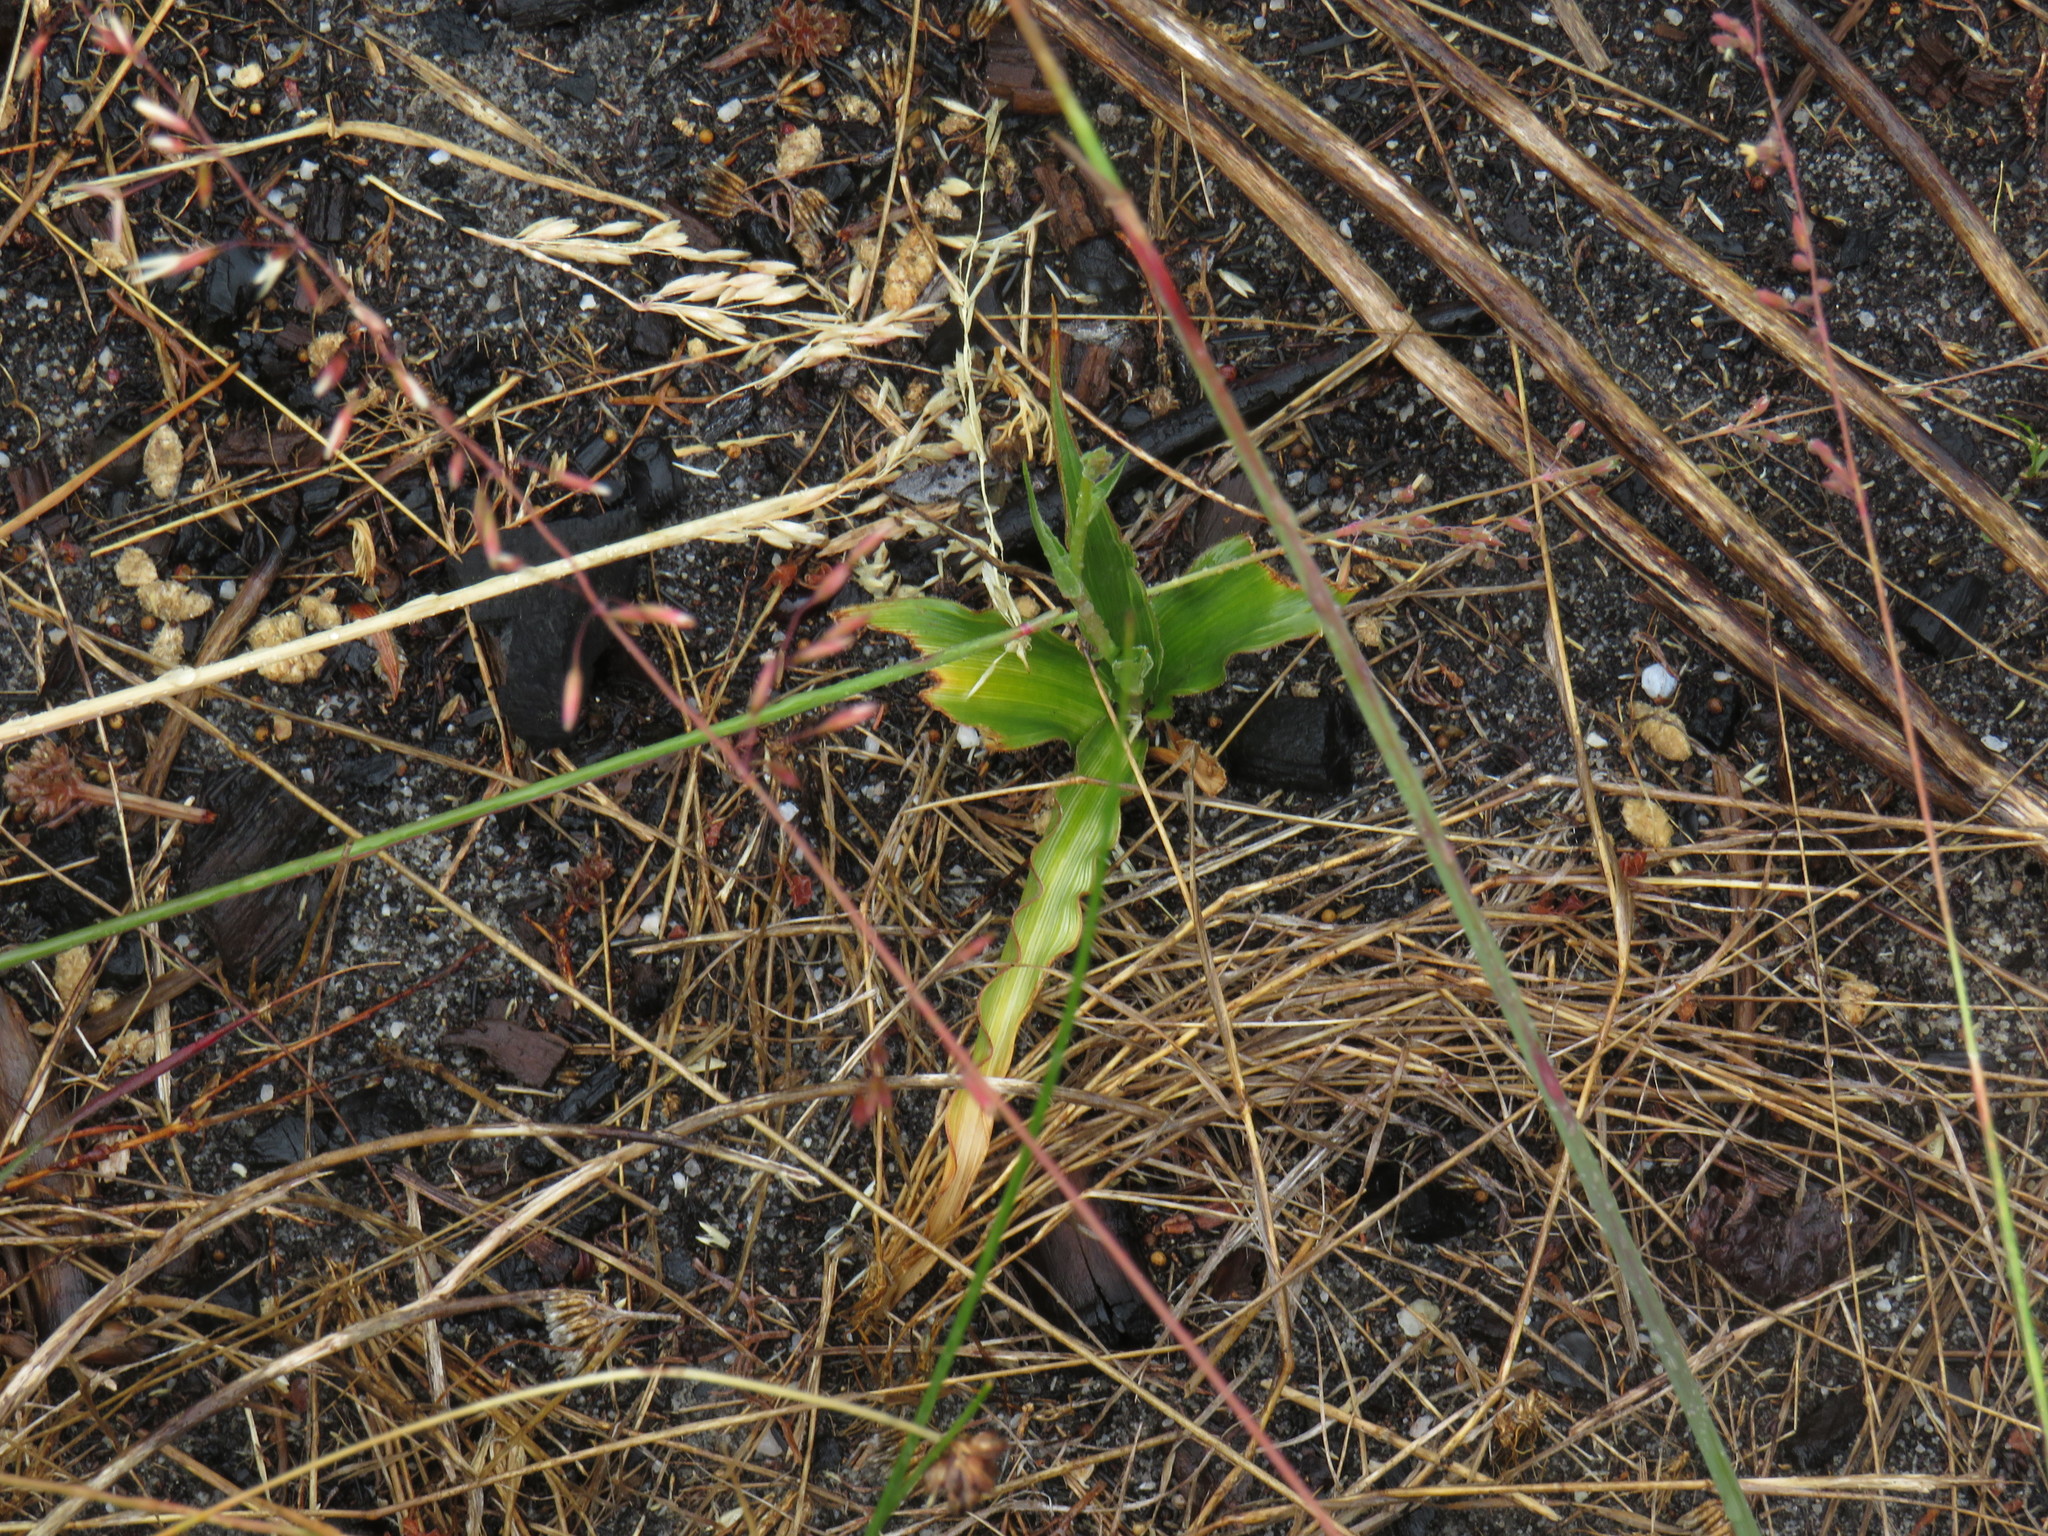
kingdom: Plantae
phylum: Tracheophyta
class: Liliopsida
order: Asparagales
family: Tecophilaeaceae
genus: Cyanella
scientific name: Cyanella hyacinthoides
